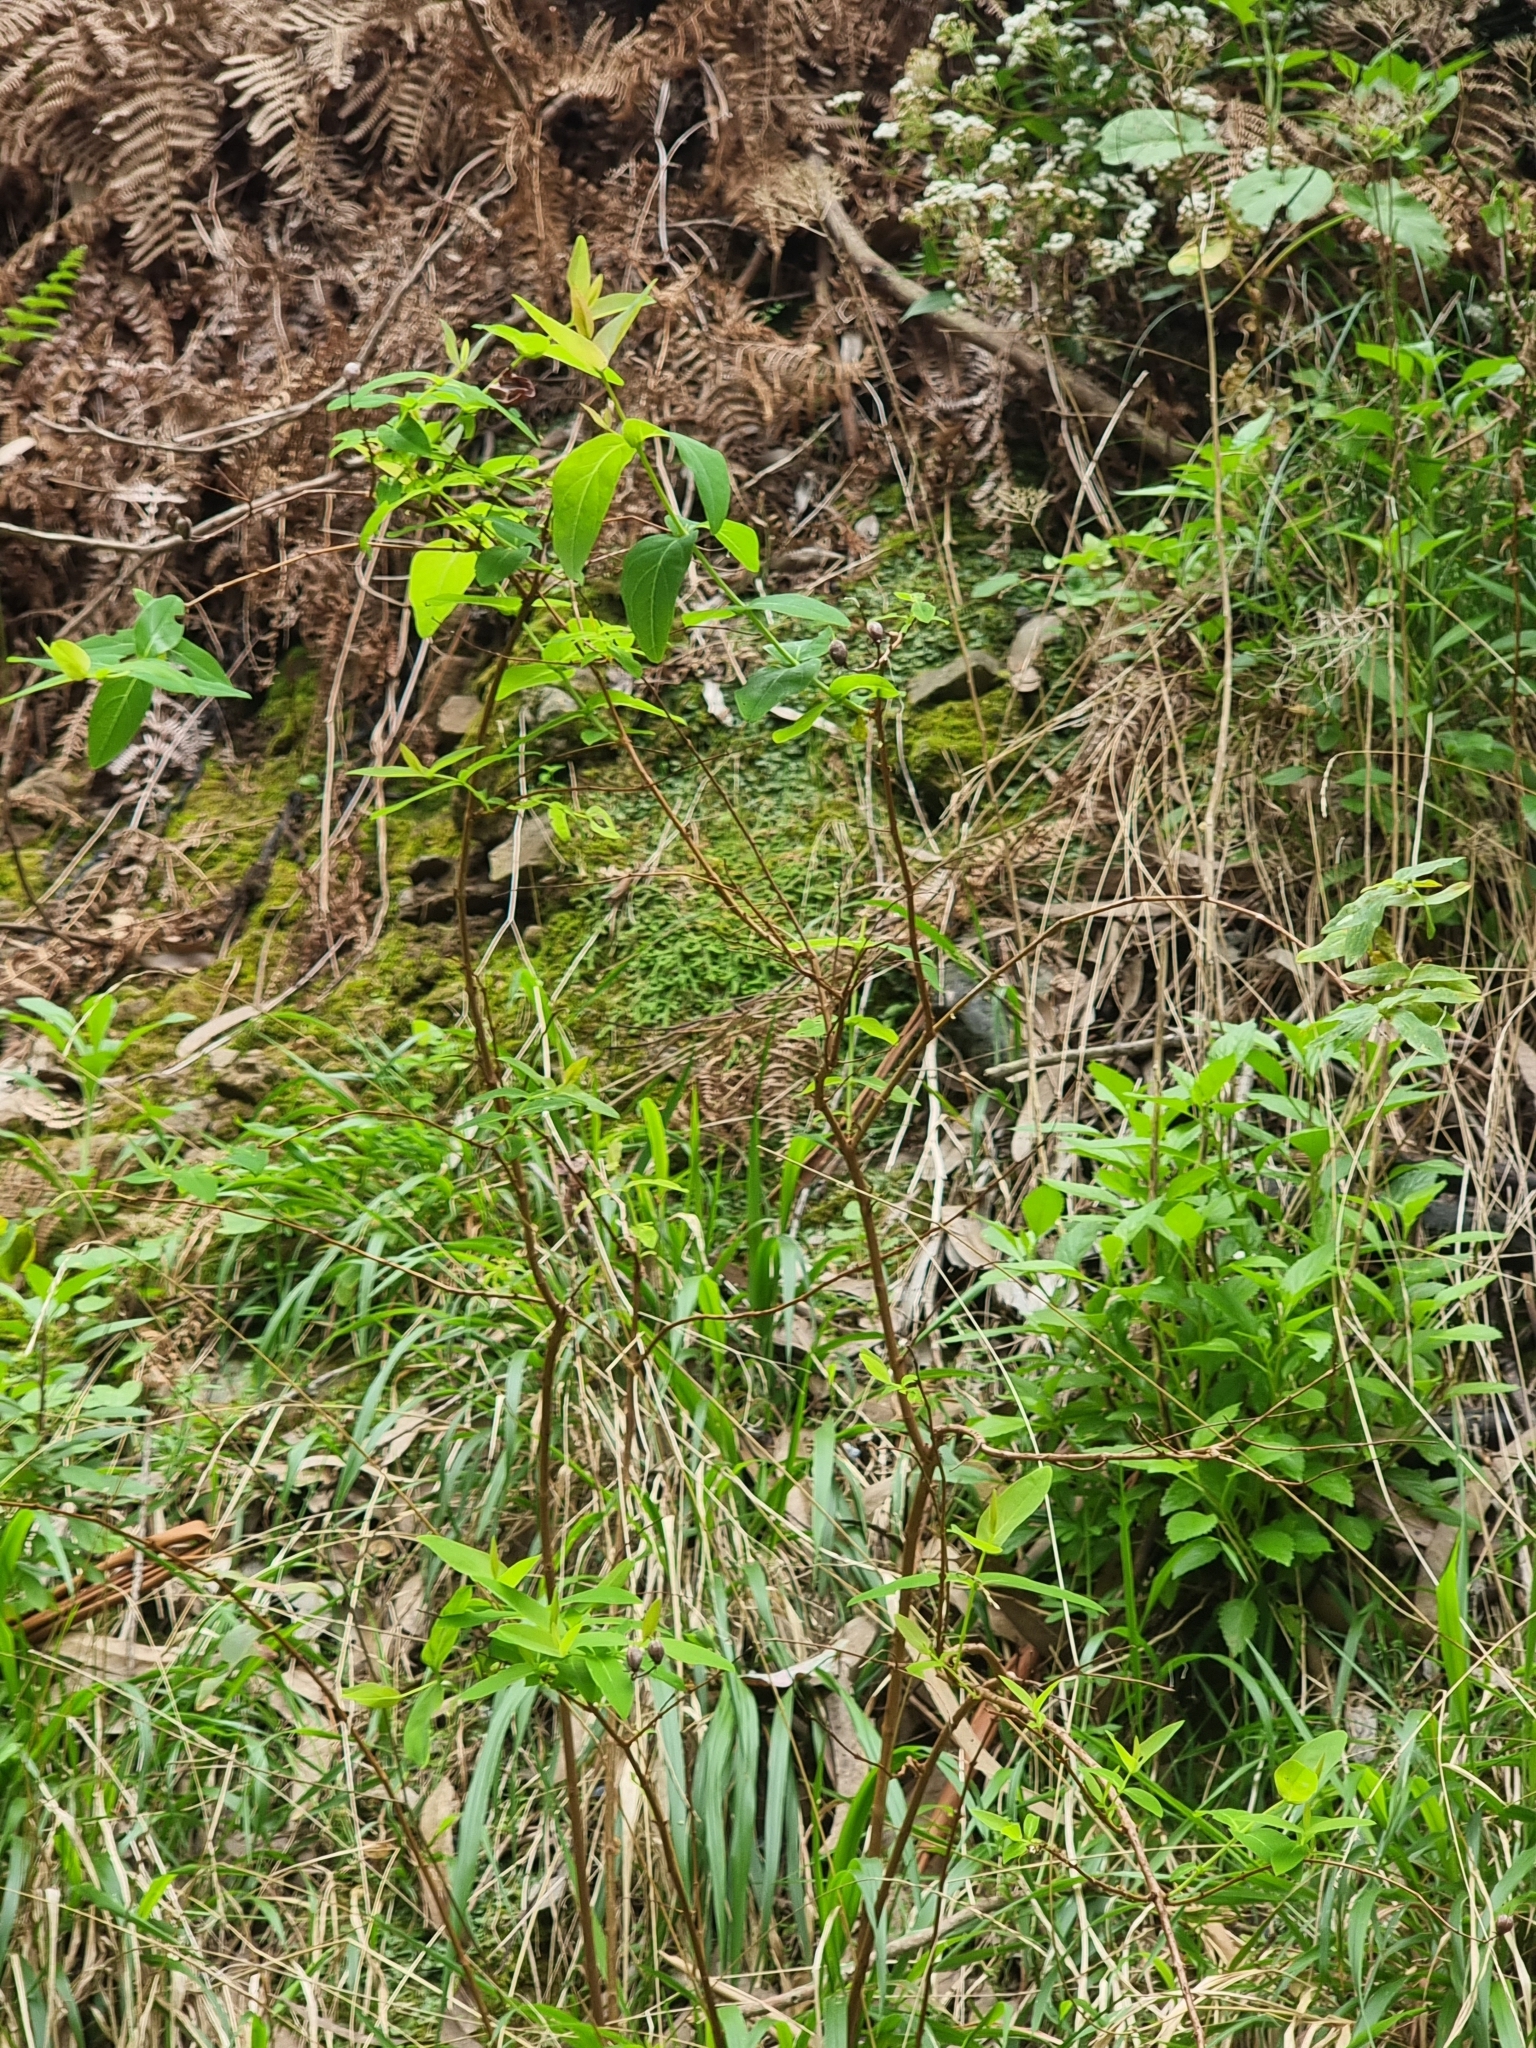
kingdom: Plantae
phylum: Tracheophyta
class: Magnoliopsida
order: Malpighiales
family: Hypericaceae
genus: Hypericum
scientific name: Hypericum grandifolium
